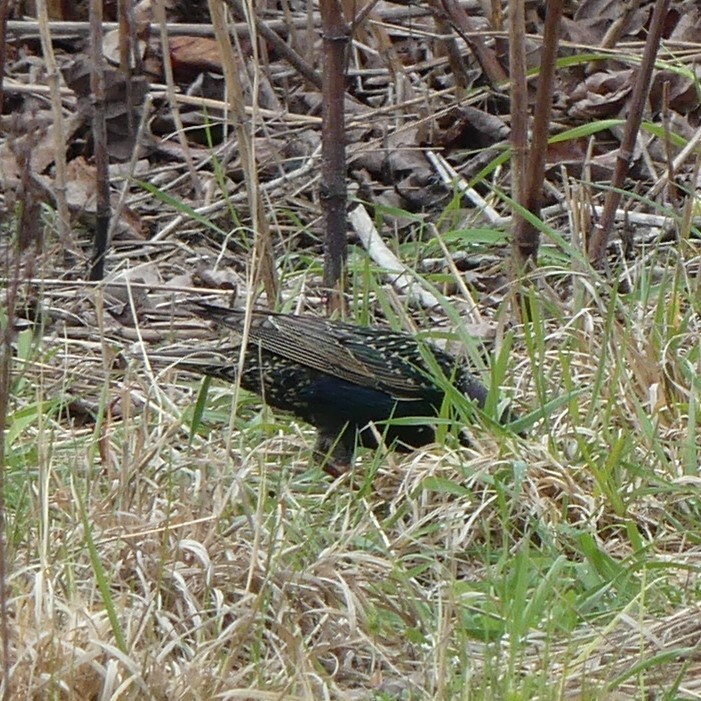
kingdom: Animalia
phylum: Chordata
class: Aves
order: Passeriformes
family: Sturnidae
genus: Sturnus
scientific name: Sturnus vulgaris
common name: Common starling
